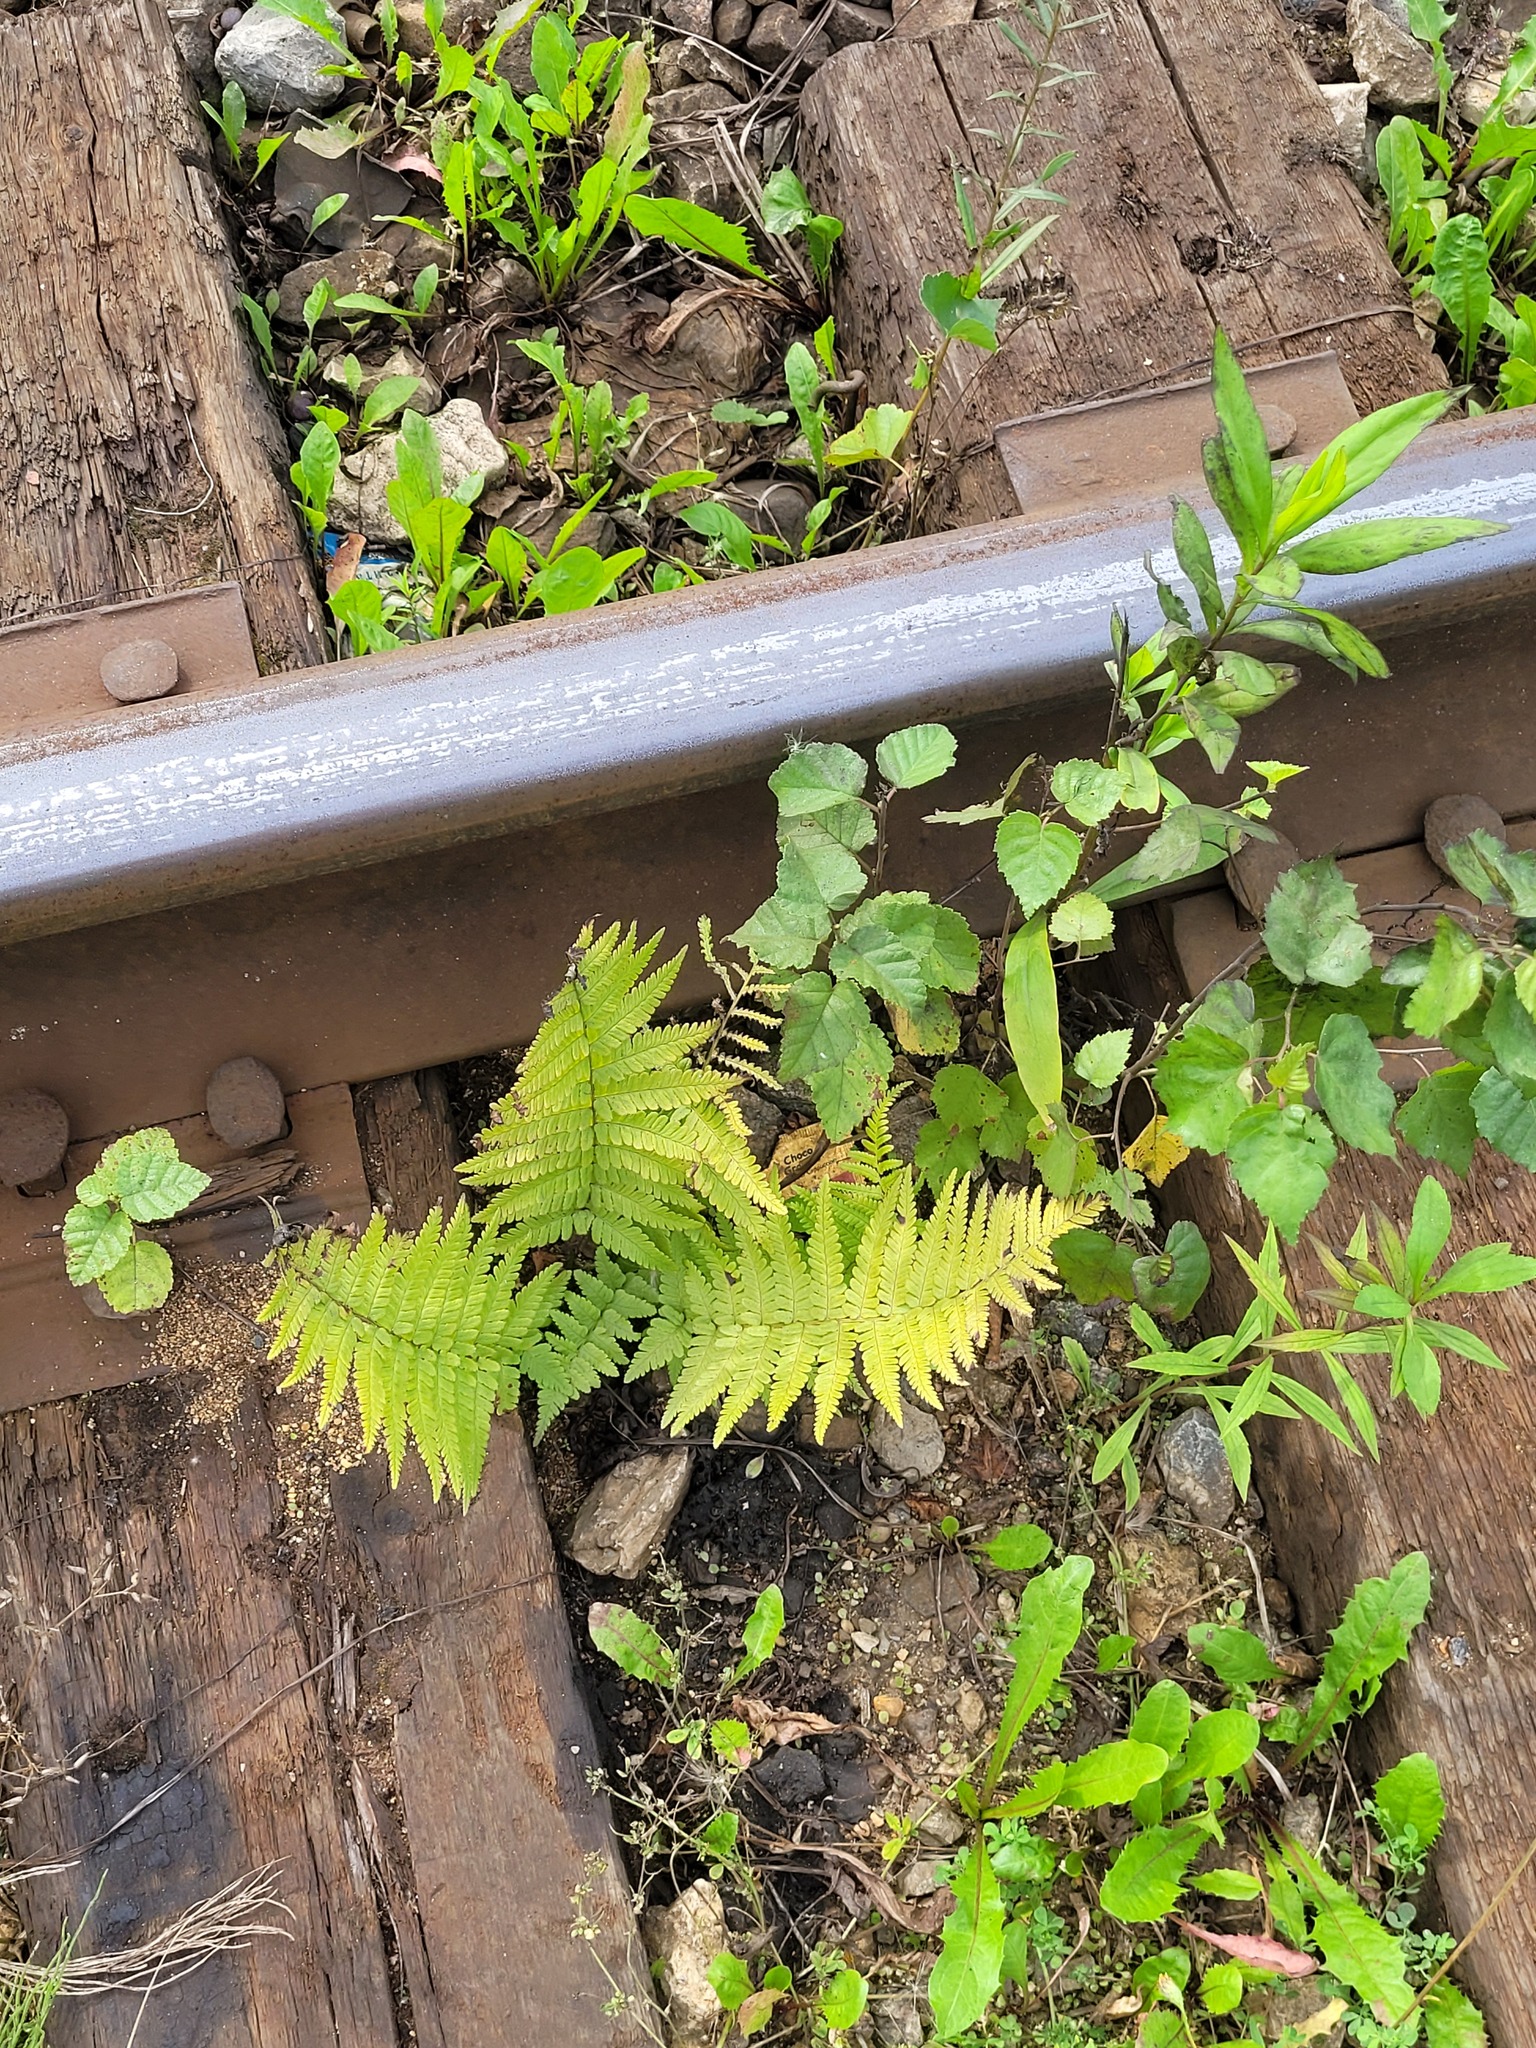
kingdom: Plantae
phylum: Tracheophyta
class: Polypodiopsida
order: Polypodiales
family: Dryopteridaceae
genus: Dryopteris
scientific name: Dryopteris filix-mas
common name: Male fern
